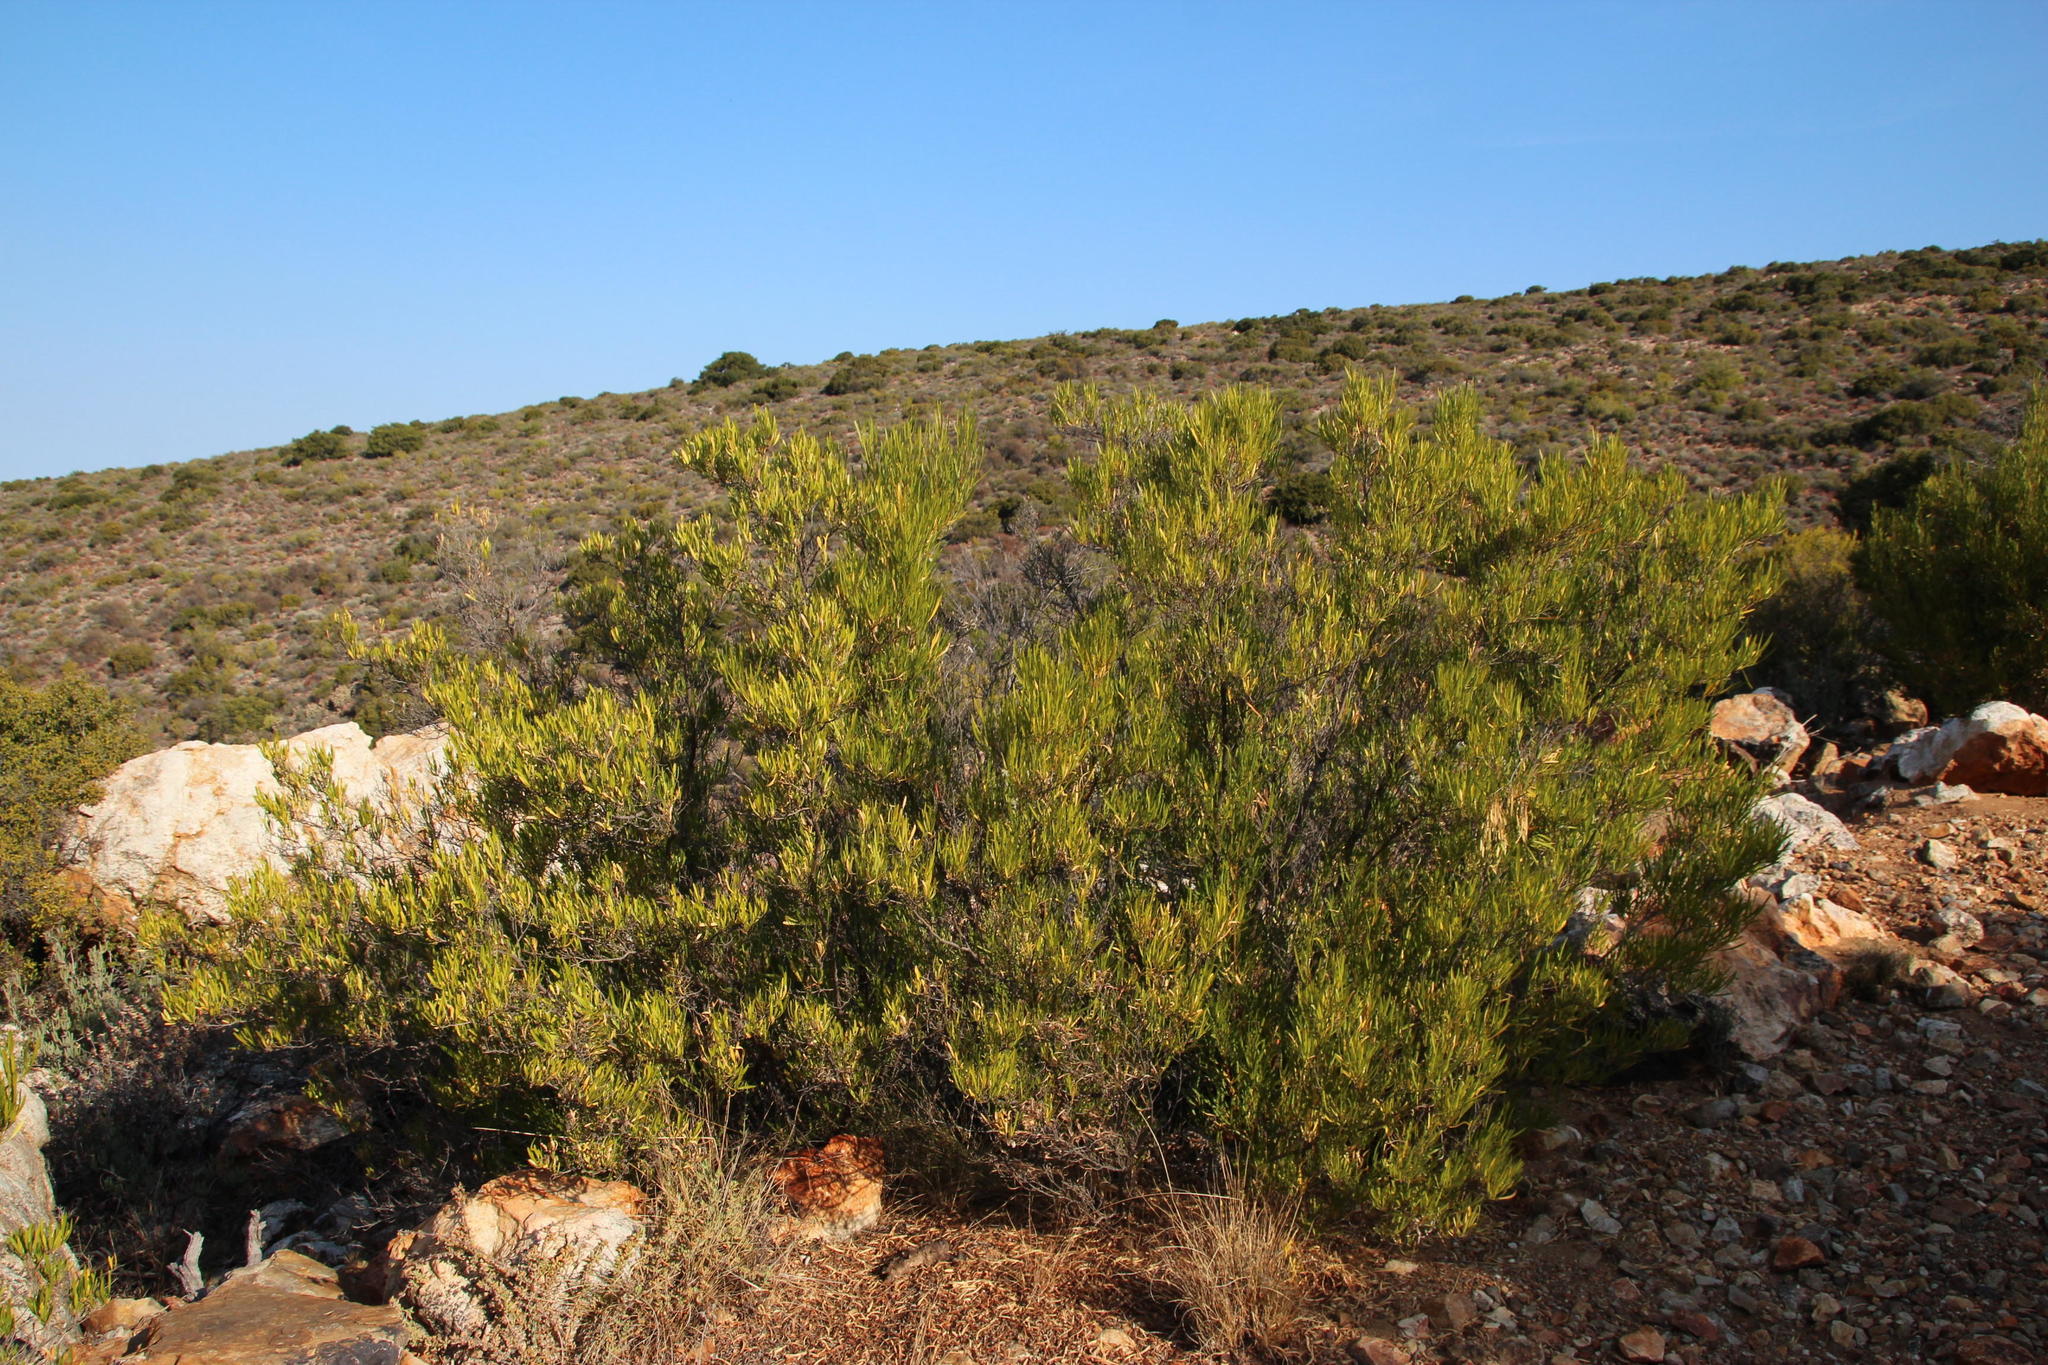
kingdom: Plantae
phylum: Tracheophyta
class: Magnoliopsida
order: Sapindales
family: Sapindaceae
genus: Dodonaea
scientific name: Dodonaea viscosa
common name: Hopbush
